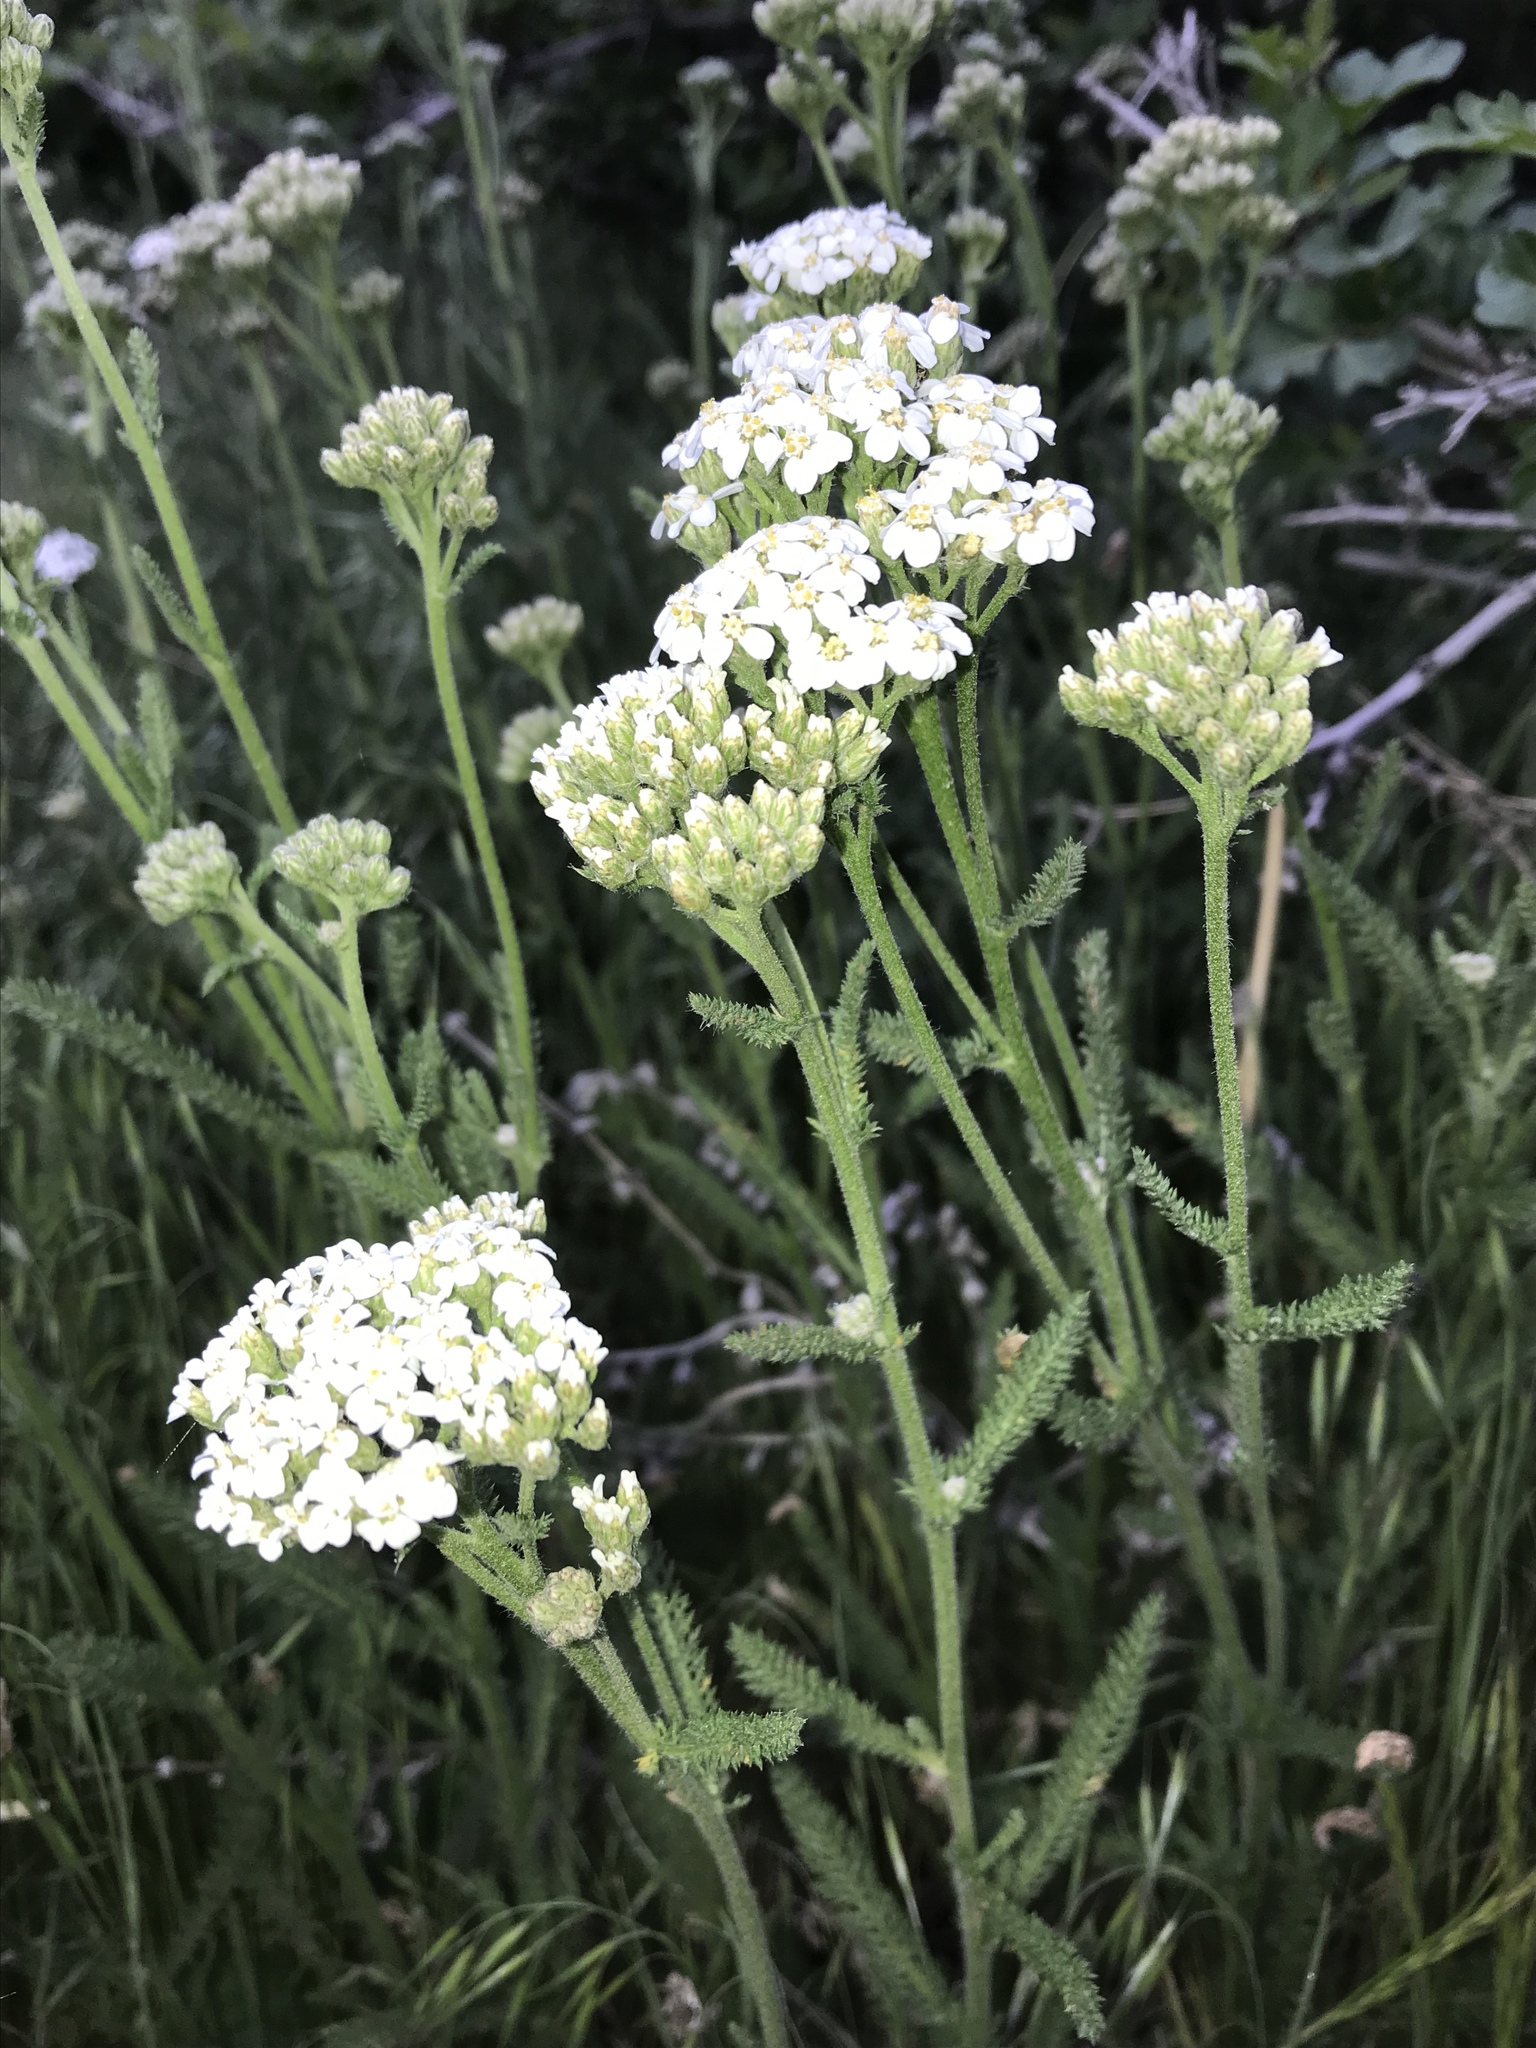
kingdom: Plantae
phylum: Tracheophyta
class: Magnoliopsida
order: Asterales
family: Asteraceae
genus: Achillea
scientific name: Achillea millefolium
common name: Yarrow
